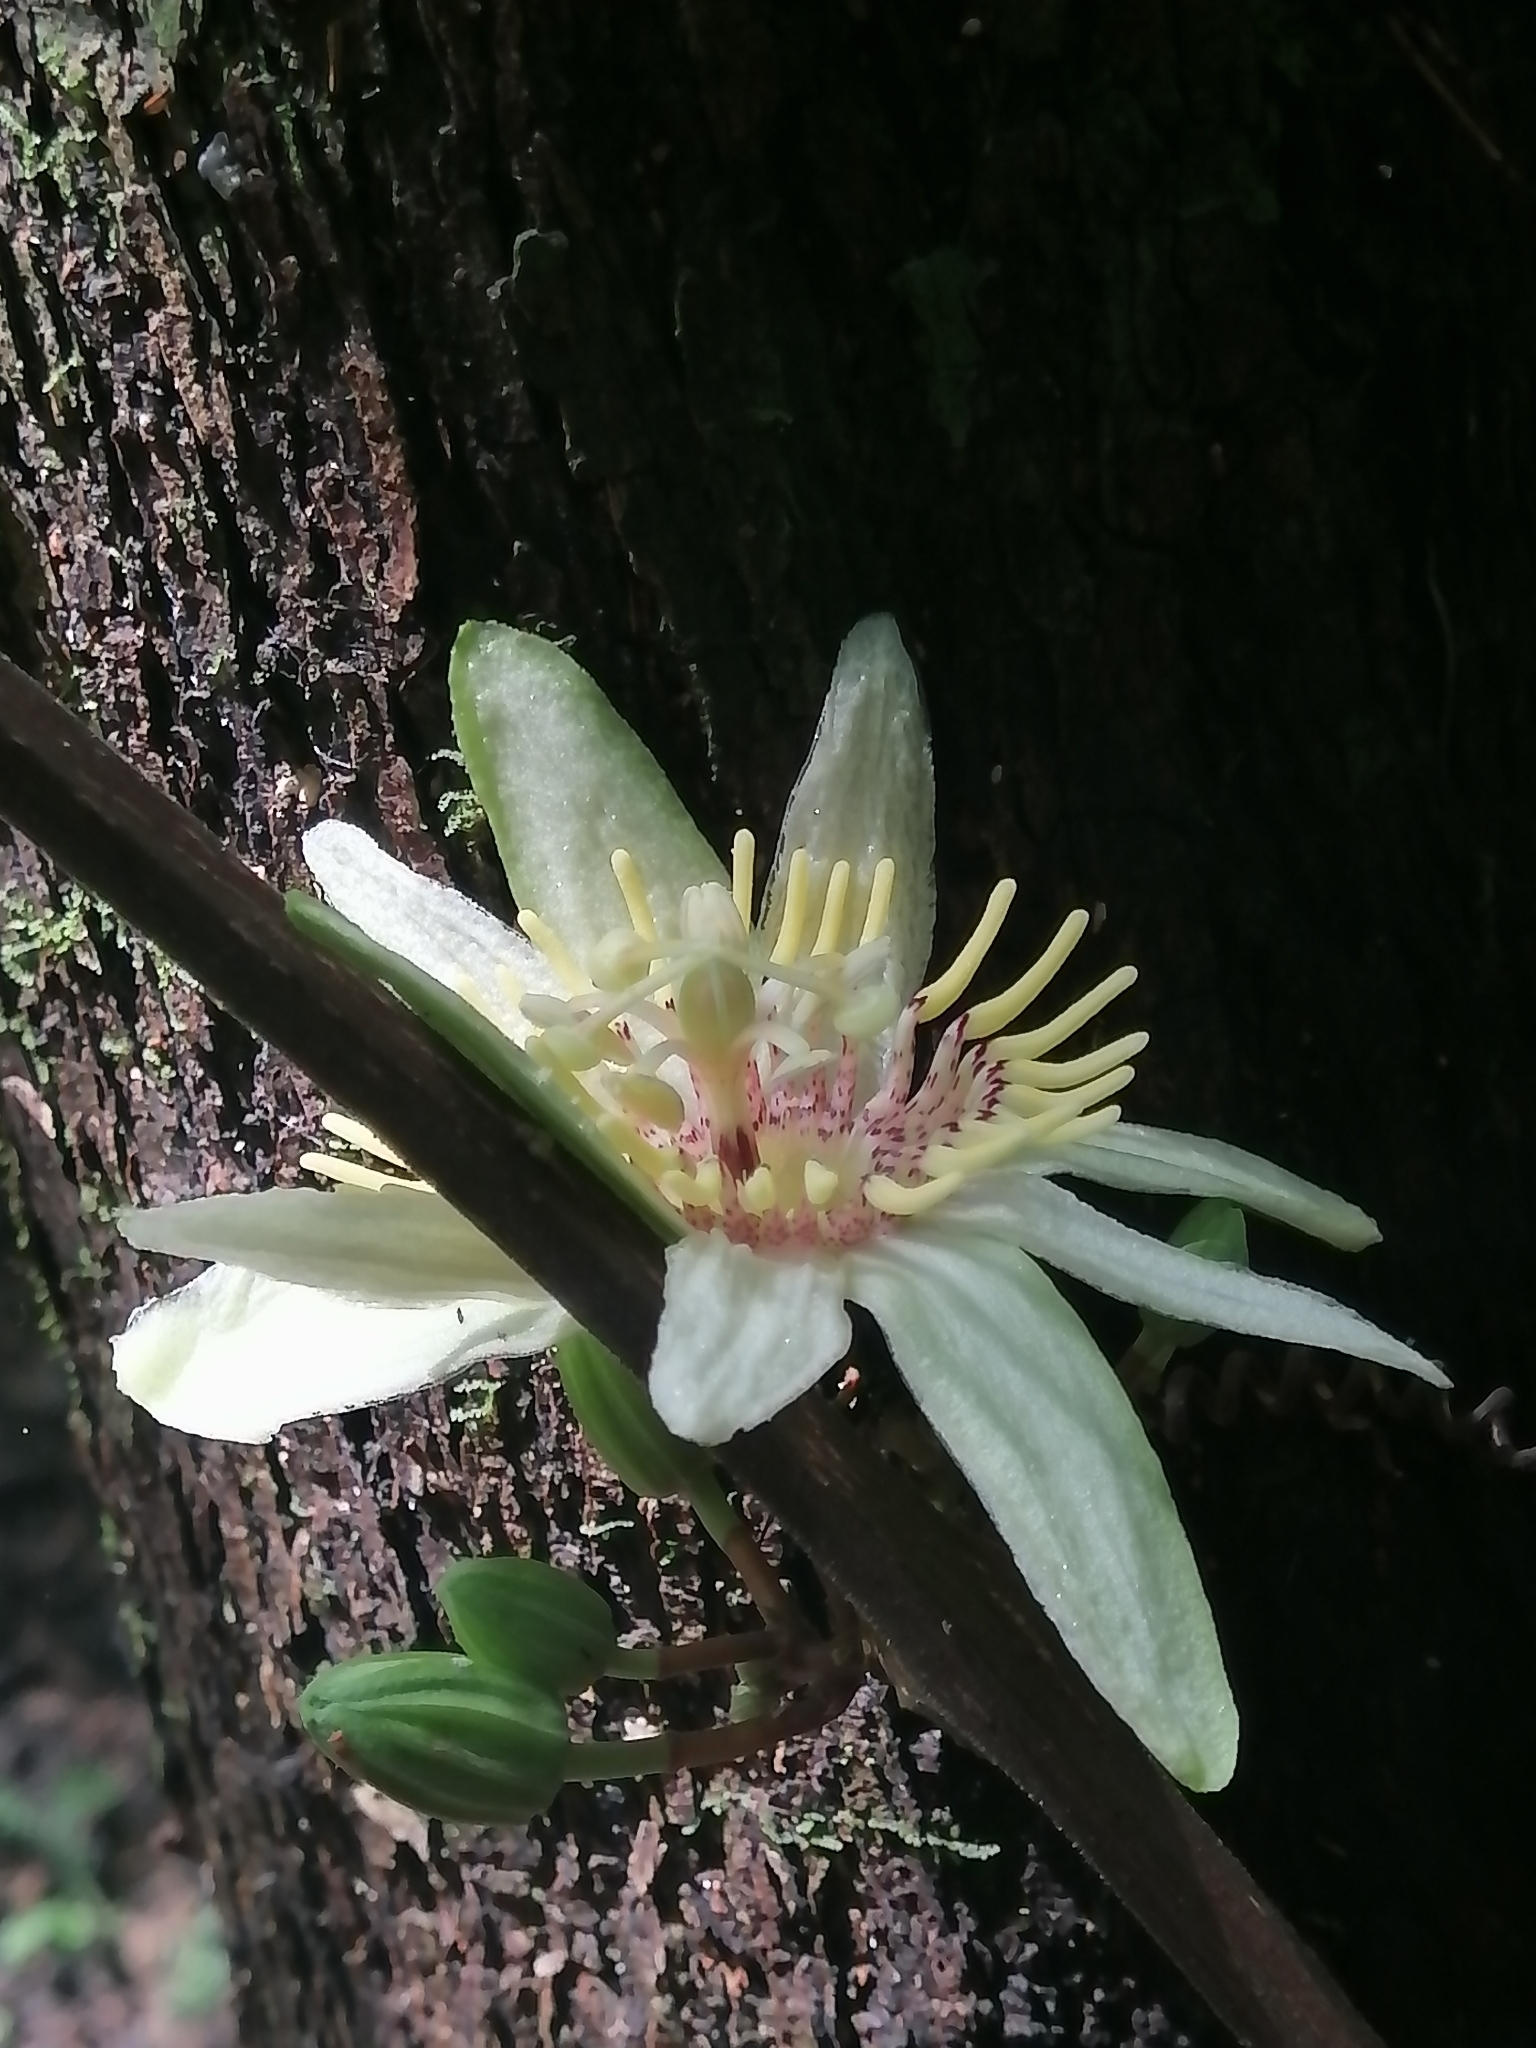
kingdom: Plantae
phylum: Tracheophyta
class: Magnoliopsida
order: Malpighiales
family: Passifloraceae
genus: Passiflora
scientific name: Passiflora rovirosae
